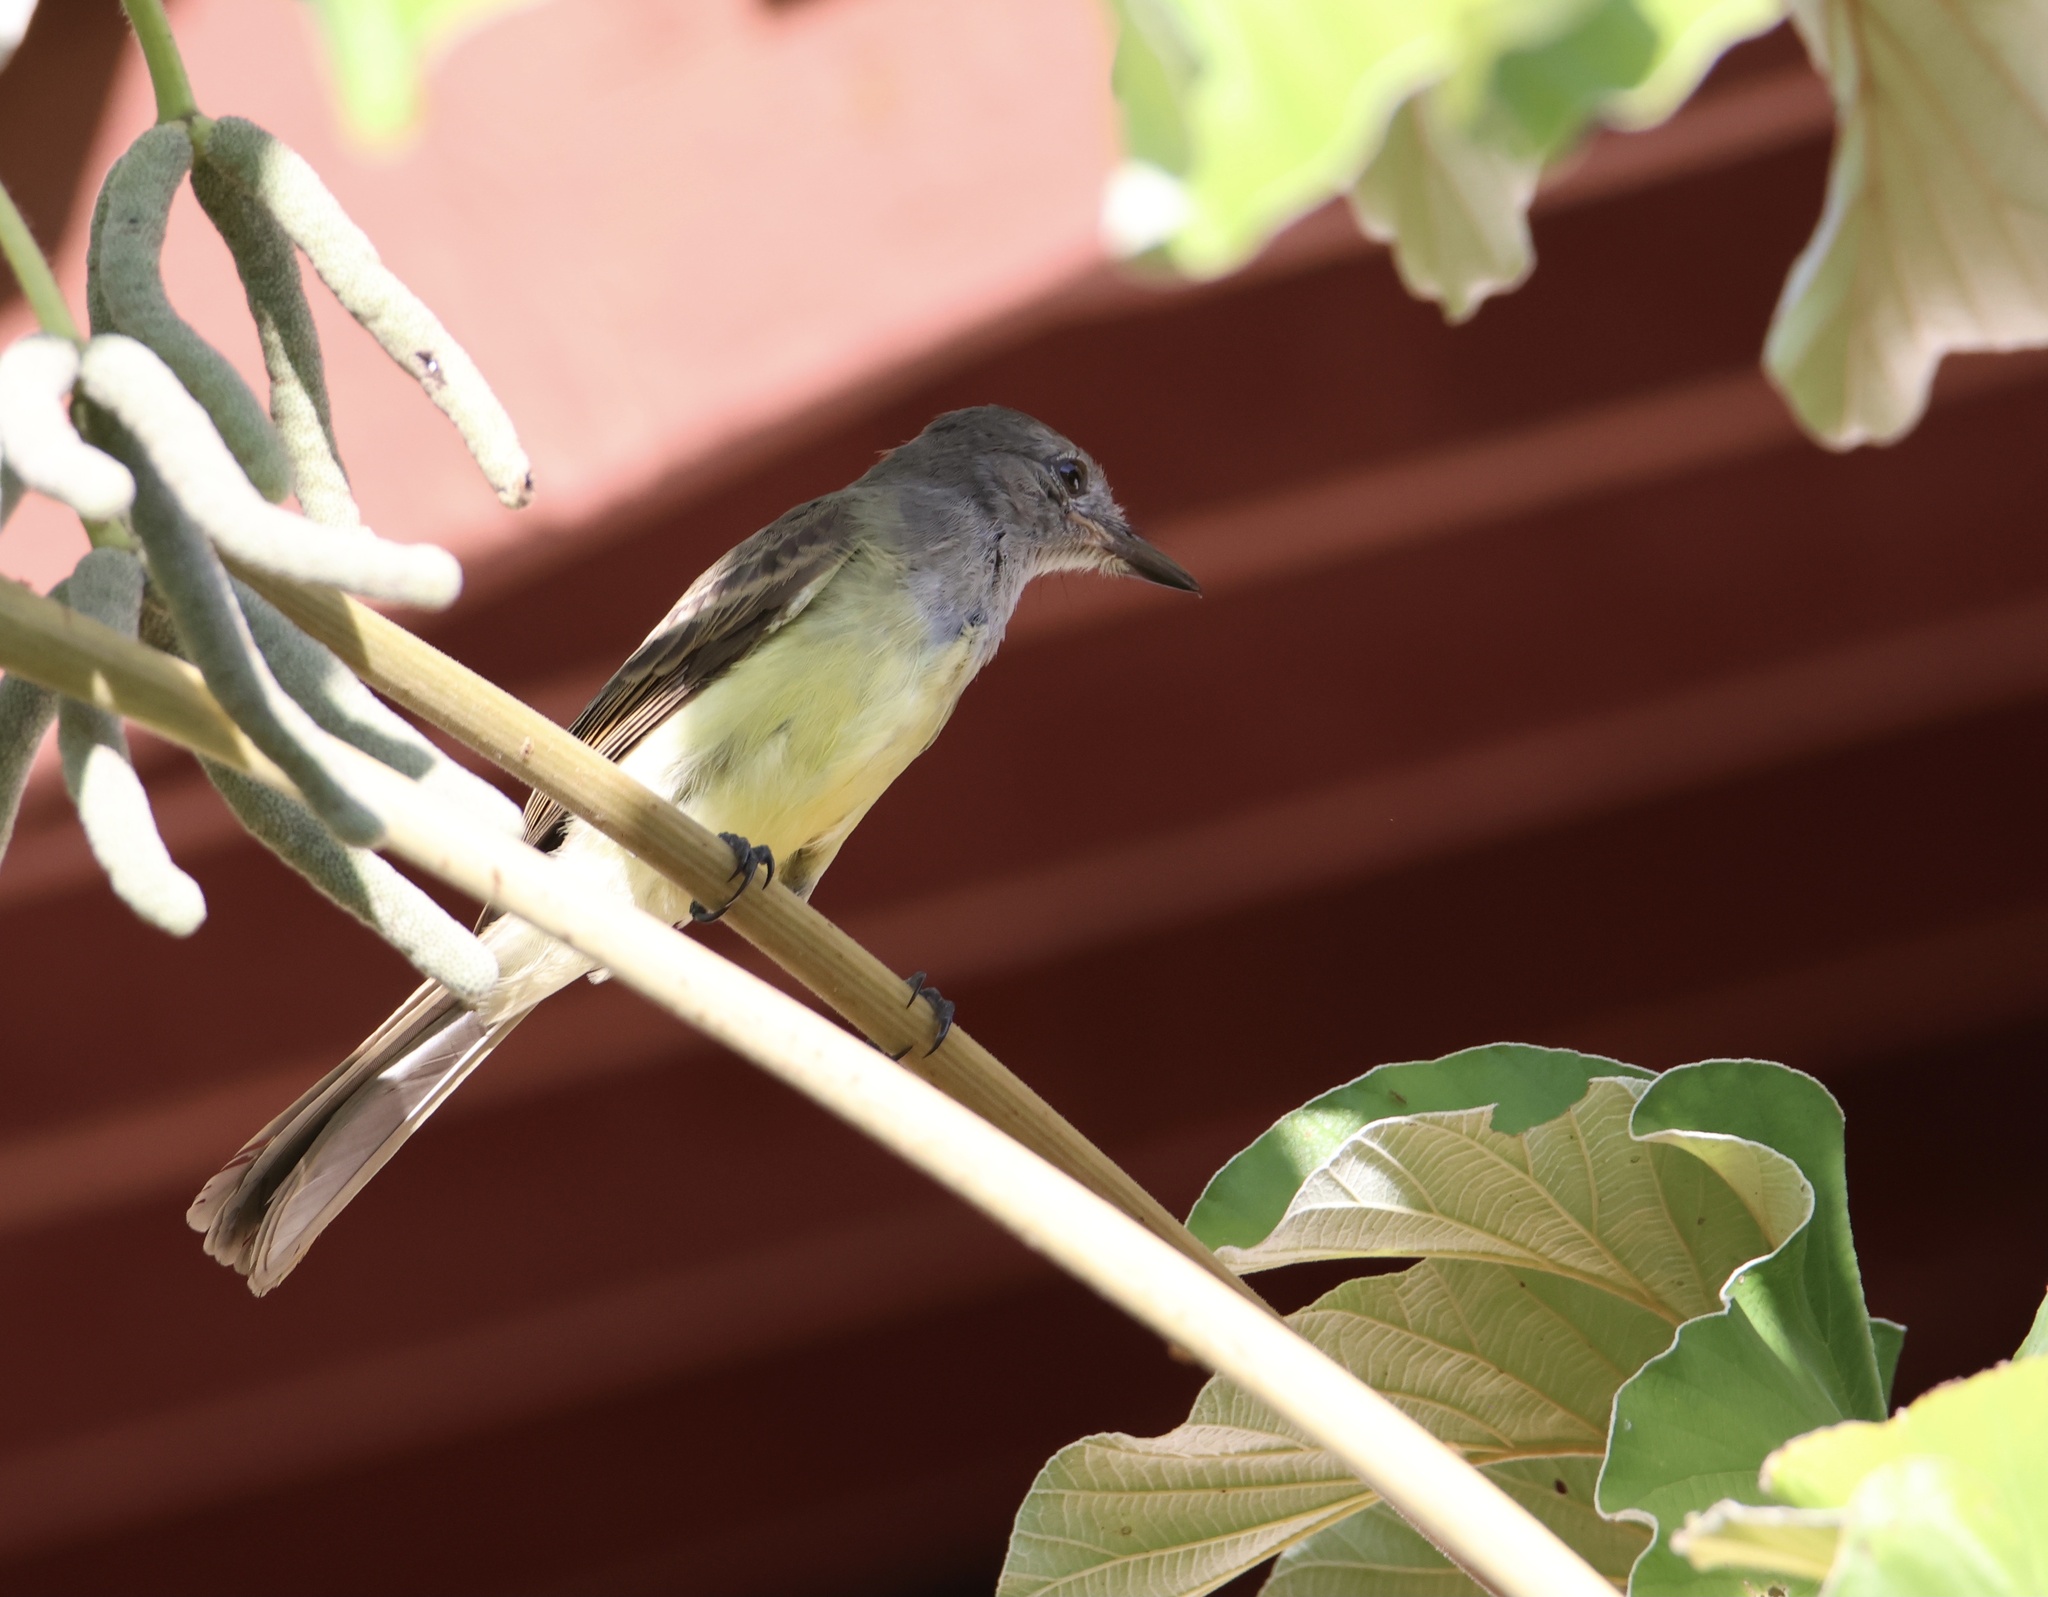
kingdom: Animalia
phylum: Chordata
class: Aves
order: Passeriformes
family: Tyrannidae
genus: Myiarchus
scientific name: Myiarchus panamensis
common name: Panama flycatcher
